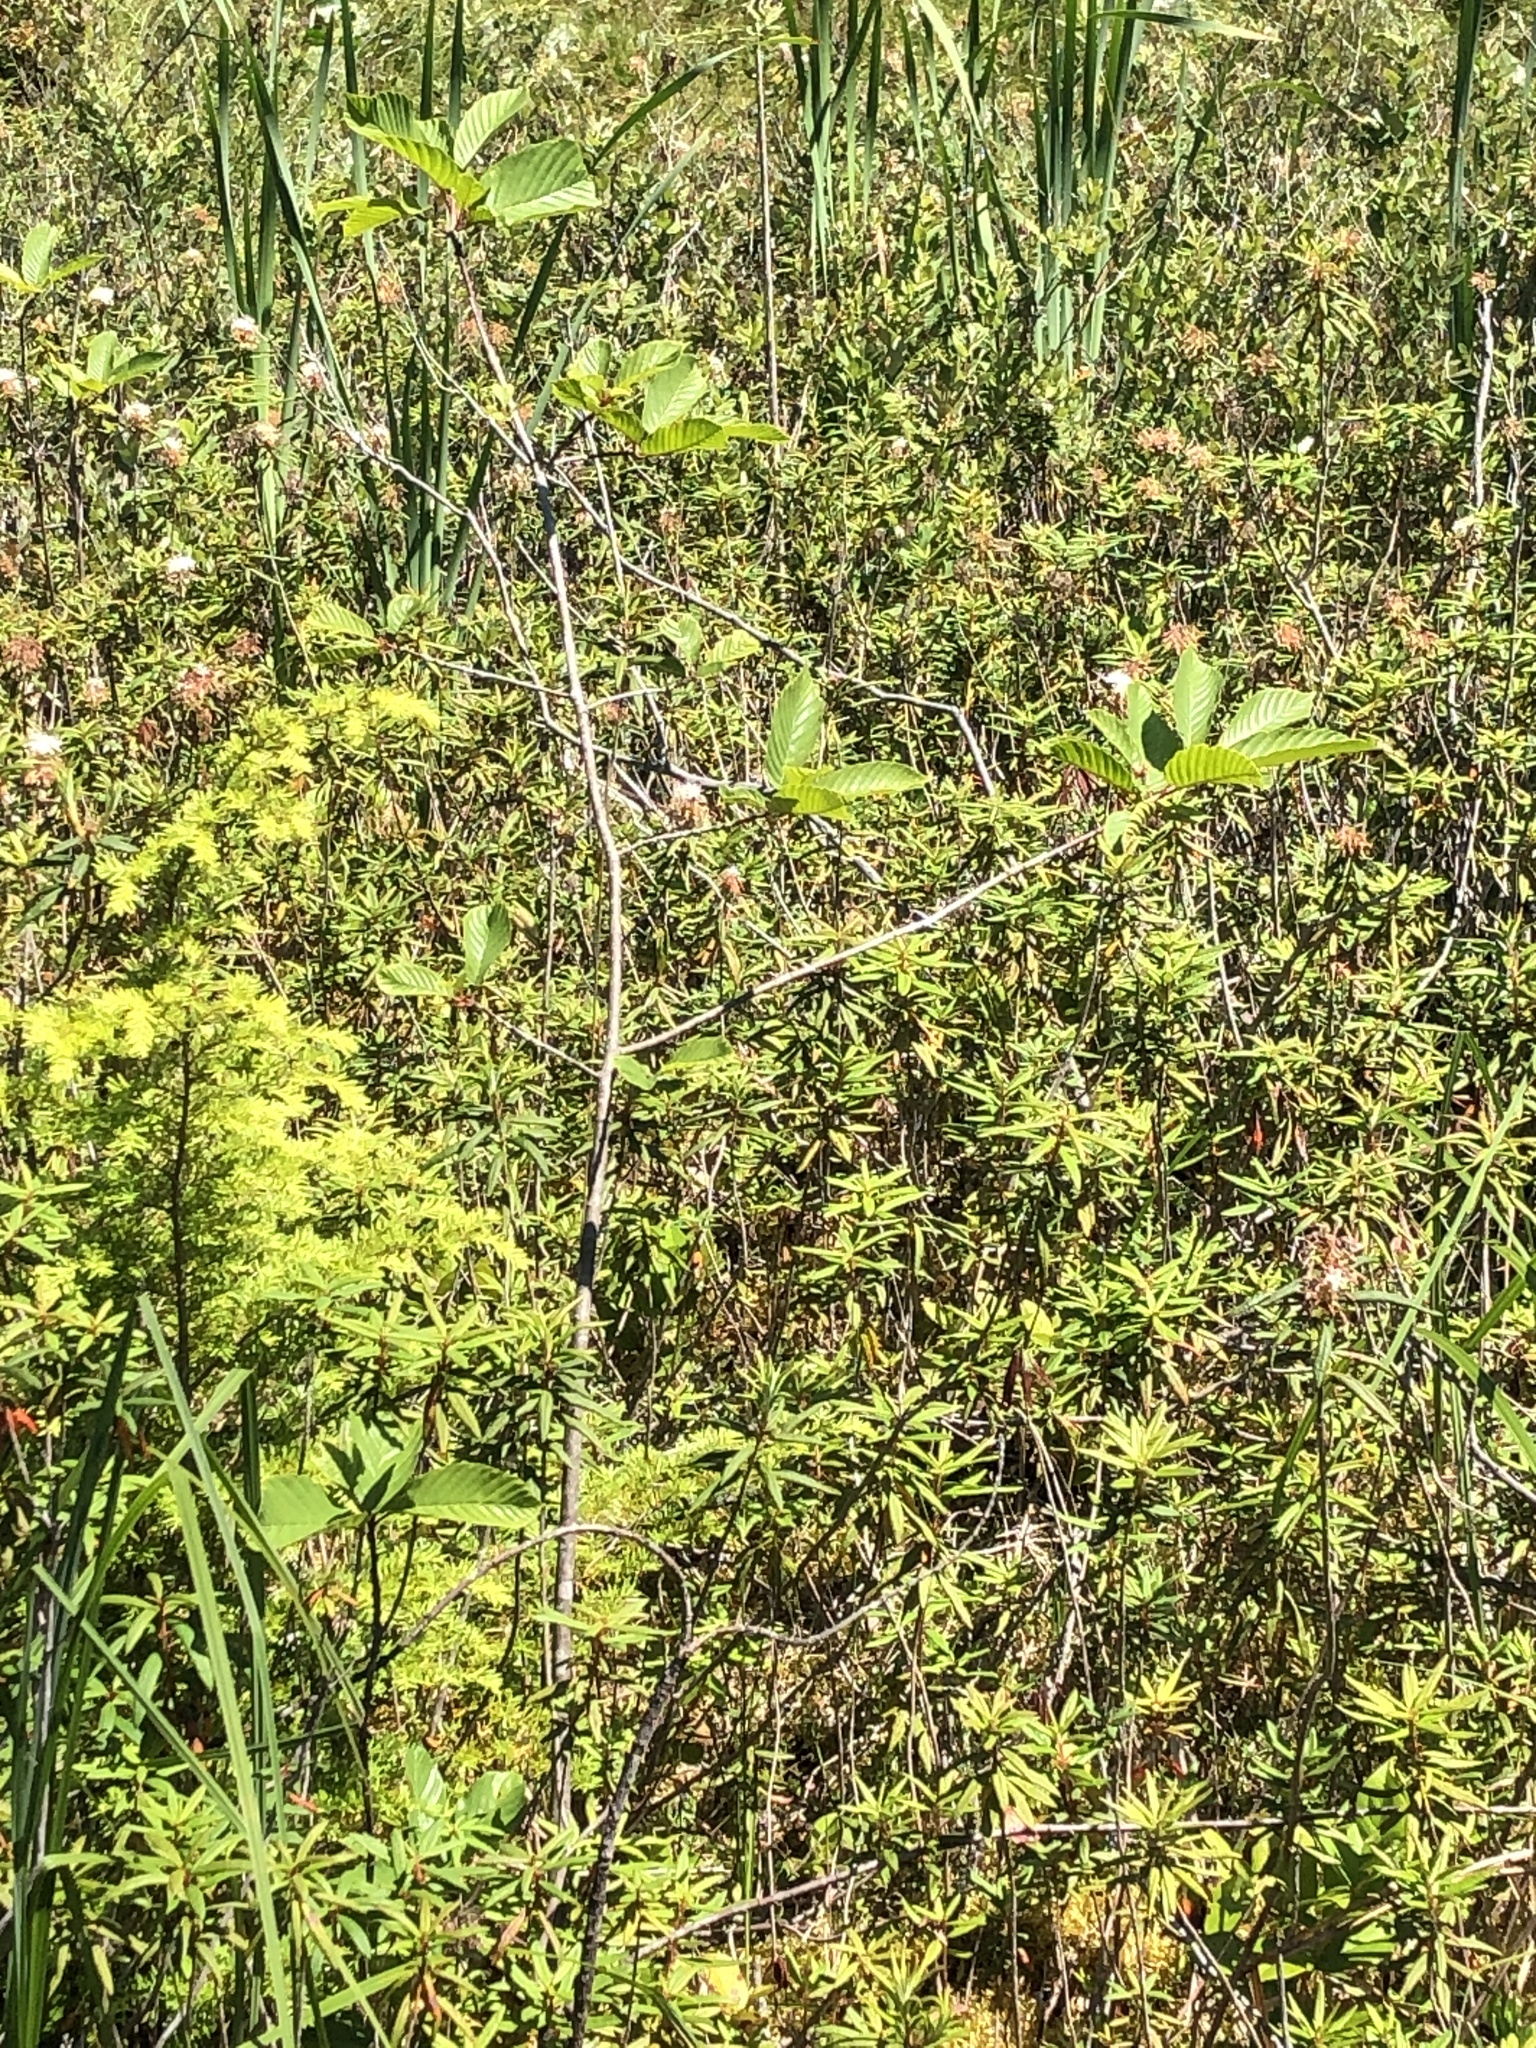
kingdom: Plantae
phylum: Tracheophyta
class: Magnoliopsida
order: Rosales
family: Rhamnaceae
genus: Frangula
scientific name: Frangula purshiana
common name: Cascara buckthorn
